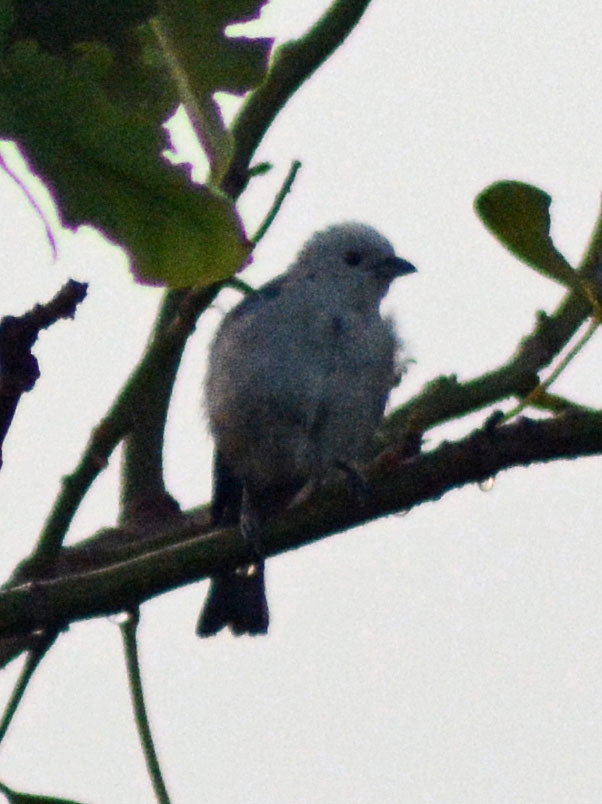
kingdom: Animalia
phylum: Chordata
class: Aves
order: Passeriformes
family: Thraupidae
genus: Thraupis
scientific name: Thraupis episcopus
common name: Blue-grey tanager
